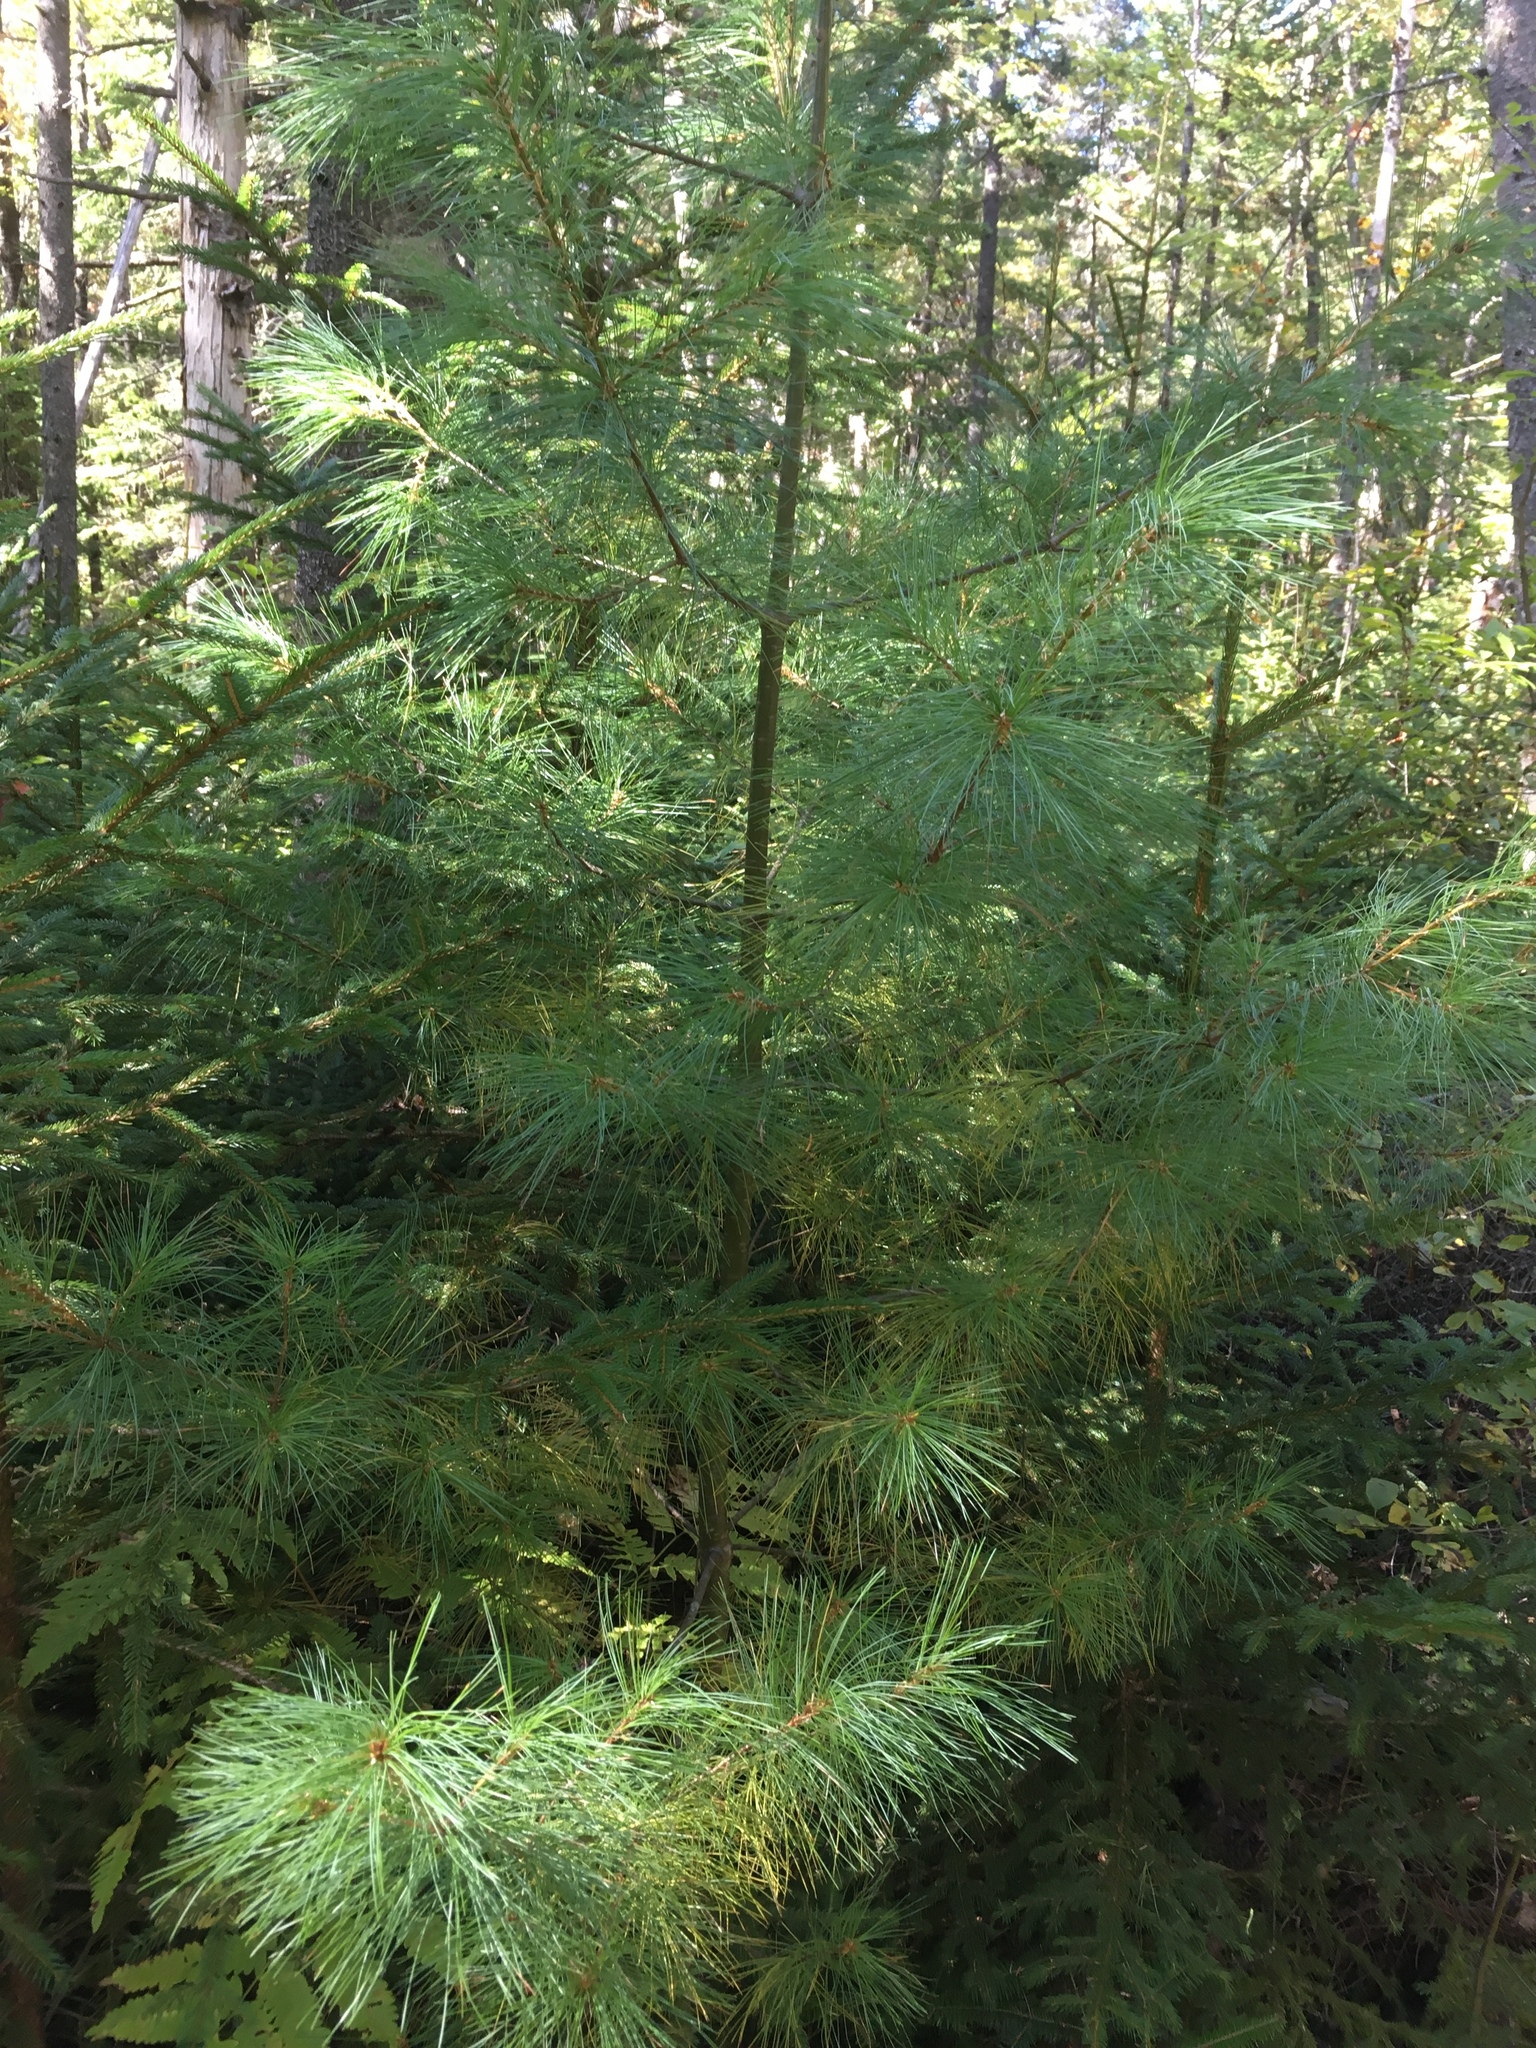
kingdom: Plantae
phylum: Tracheophyta
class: Pinopsida
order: Pinales
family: Pinaceae
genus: Pinus
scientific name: Pinus strobus
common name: Weymouth pine
